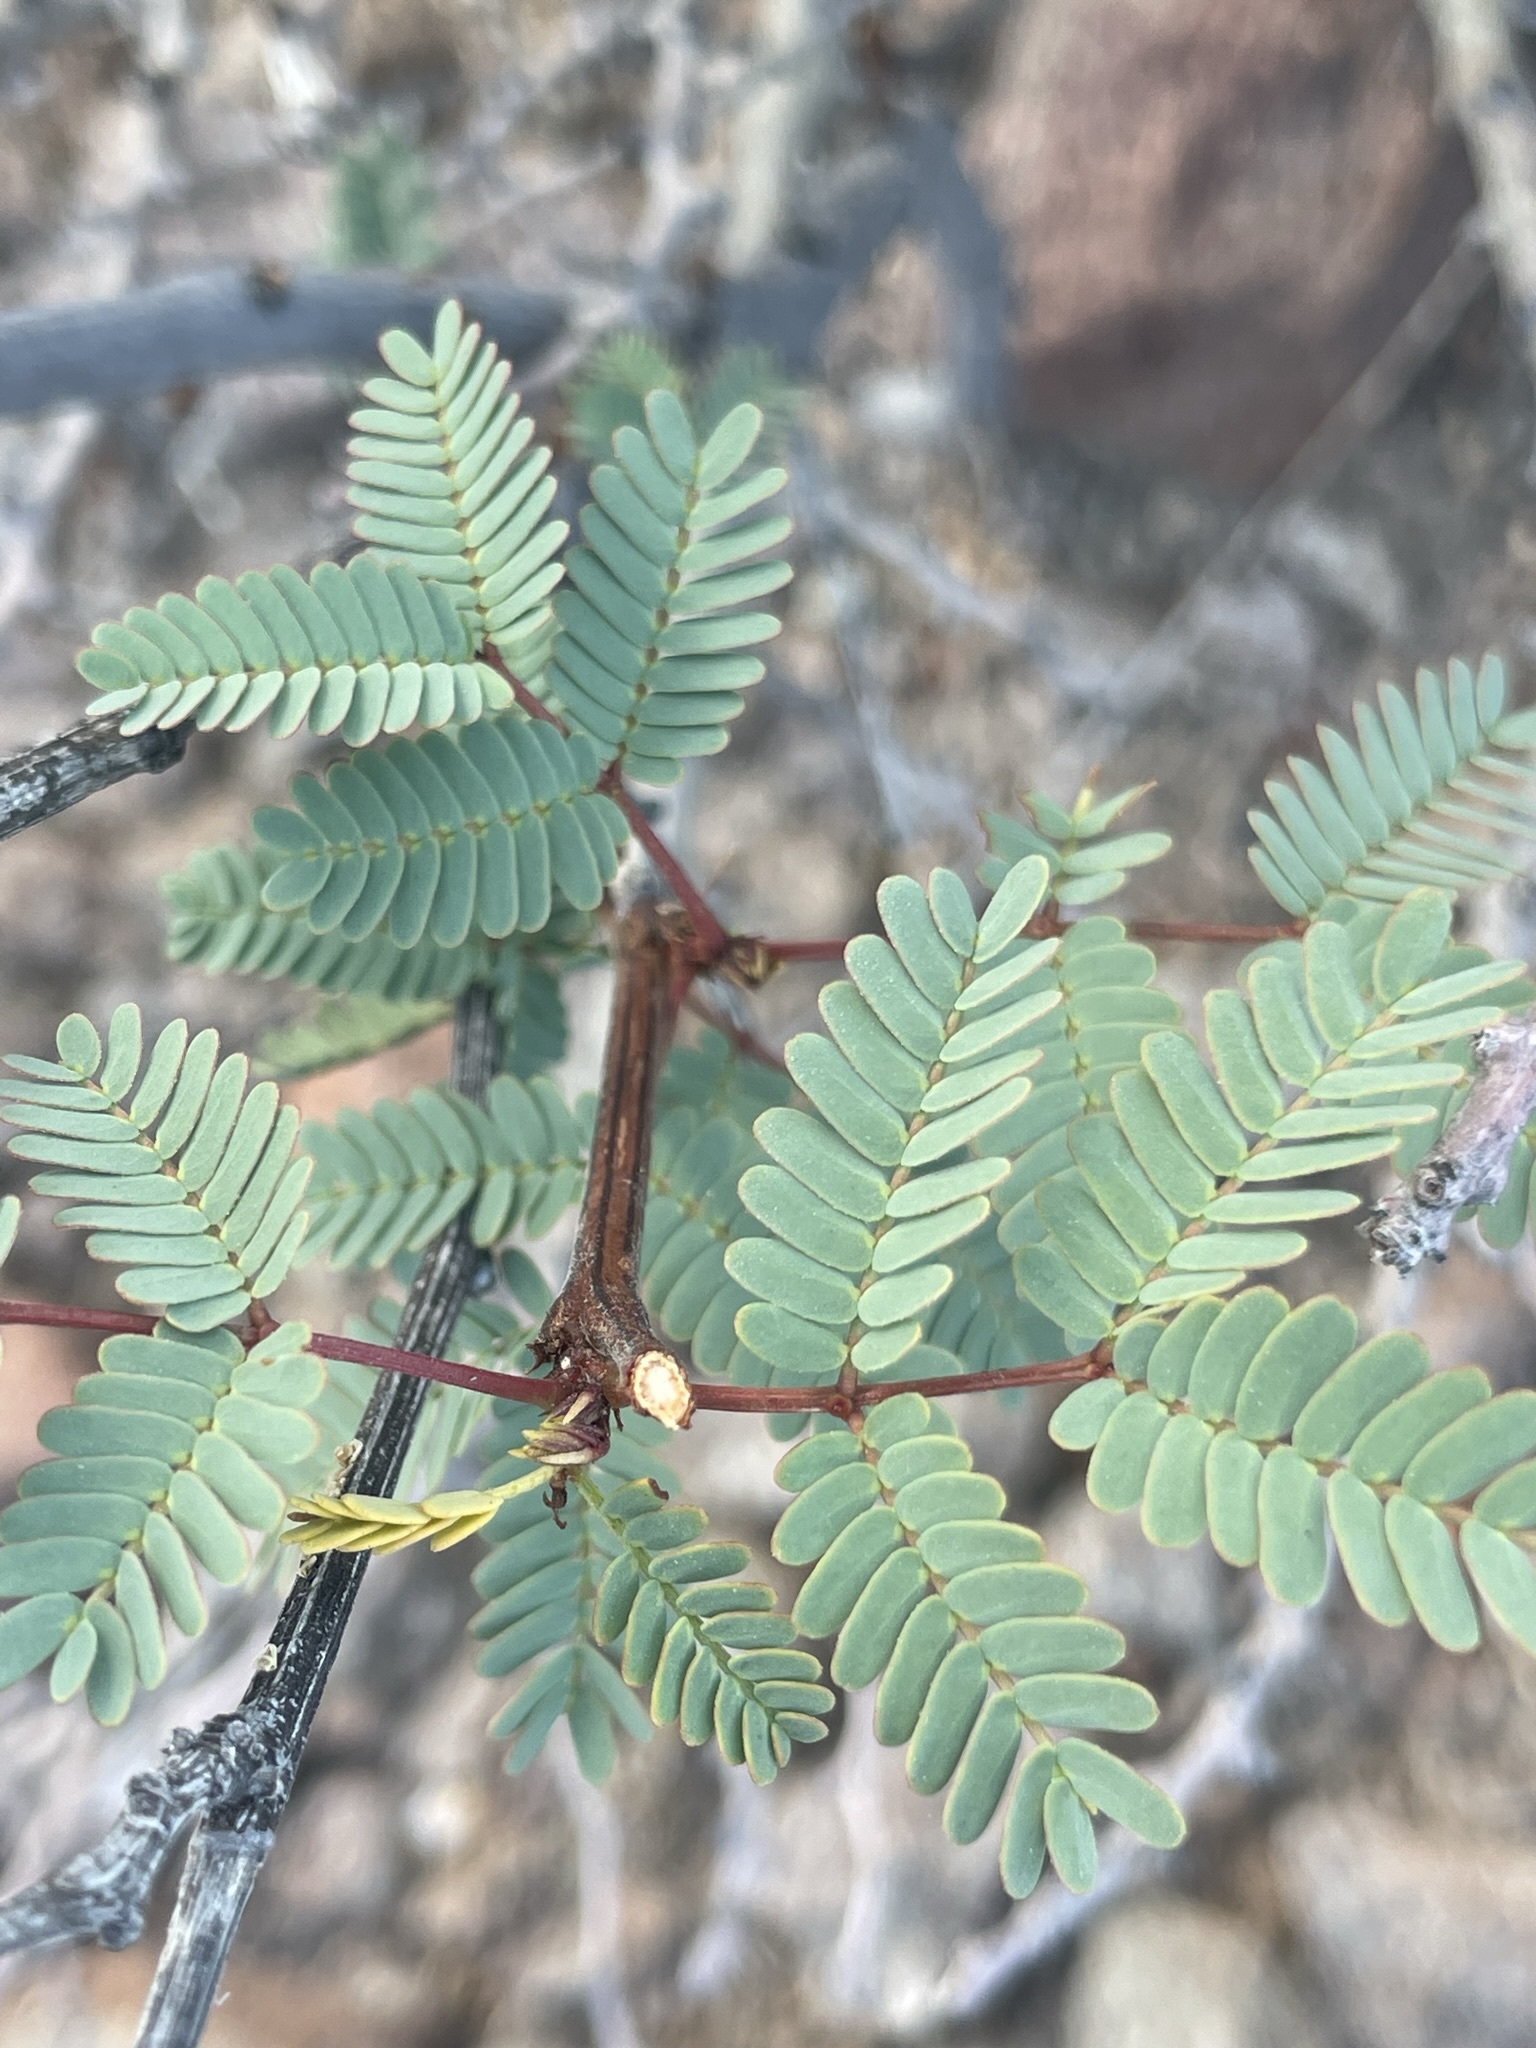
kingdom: Plantae
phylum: Tracheophyta
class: Magnoliopsida
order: Fabales
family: Fabaceae
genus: Desmanthus
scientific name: Desmanthus fruticosus
